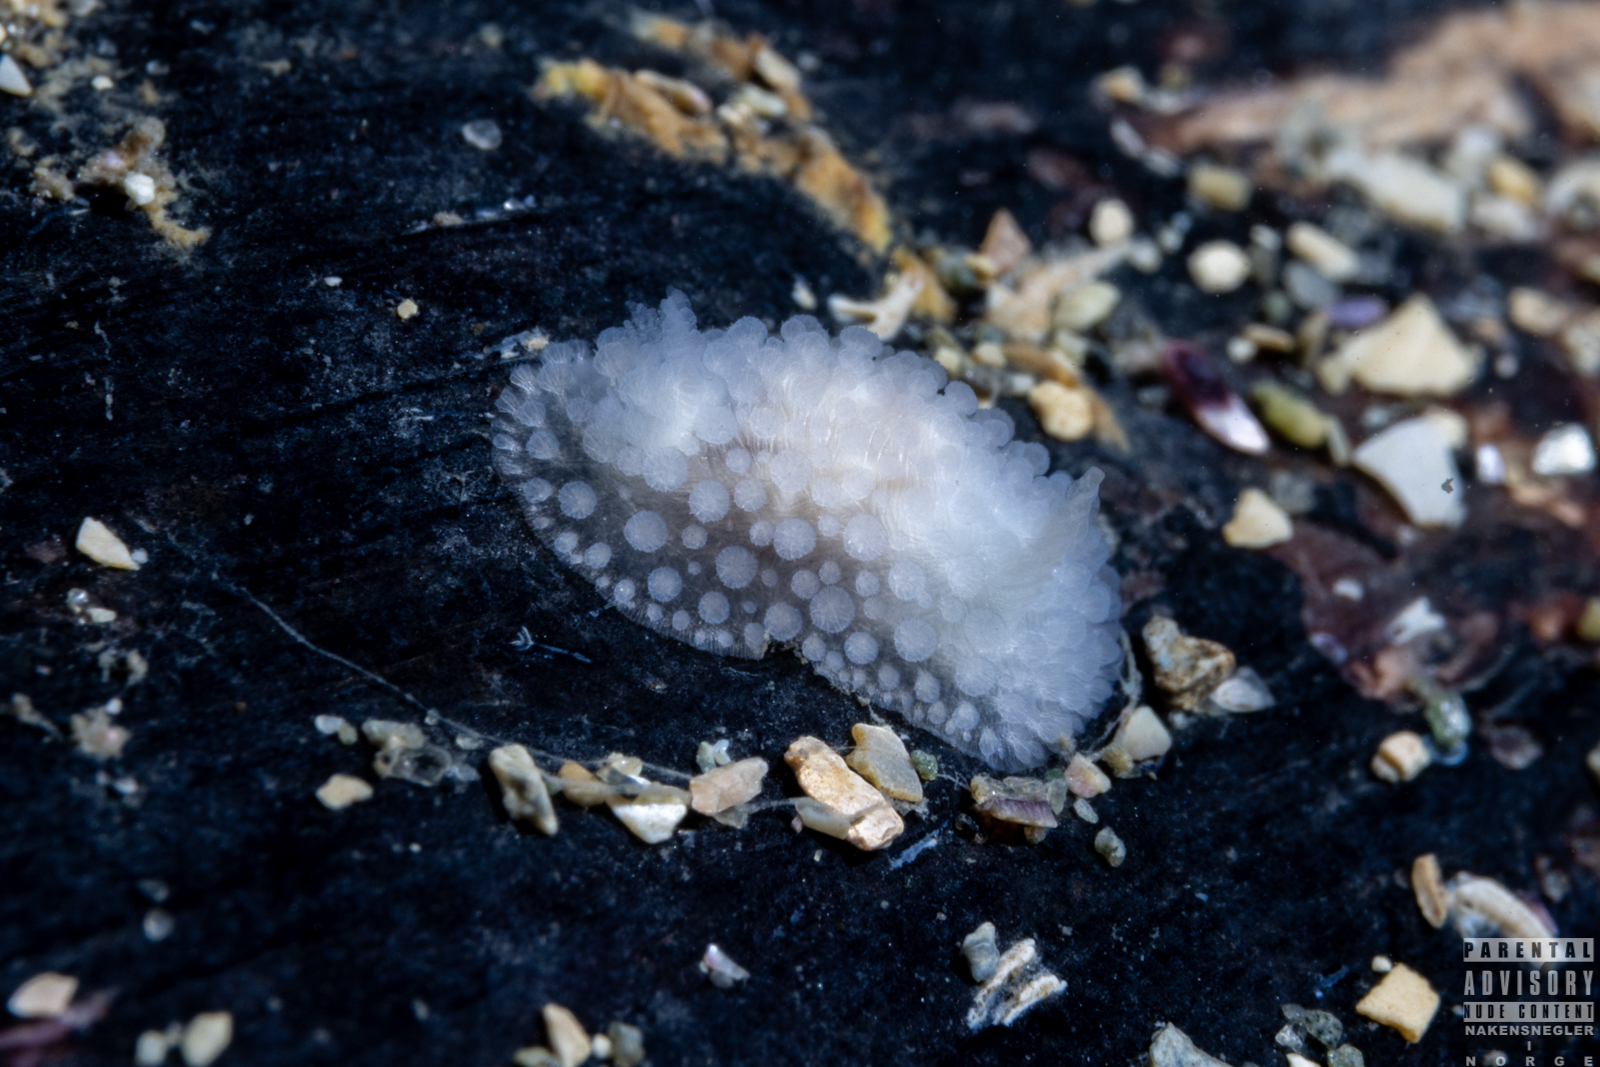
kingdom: Animalia
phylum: Mollusca
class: Gastropoda
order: Nudibranchia
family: Onchidorididae
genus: Onchidoris
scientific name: Onchidoris muricata
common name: Rough doris
